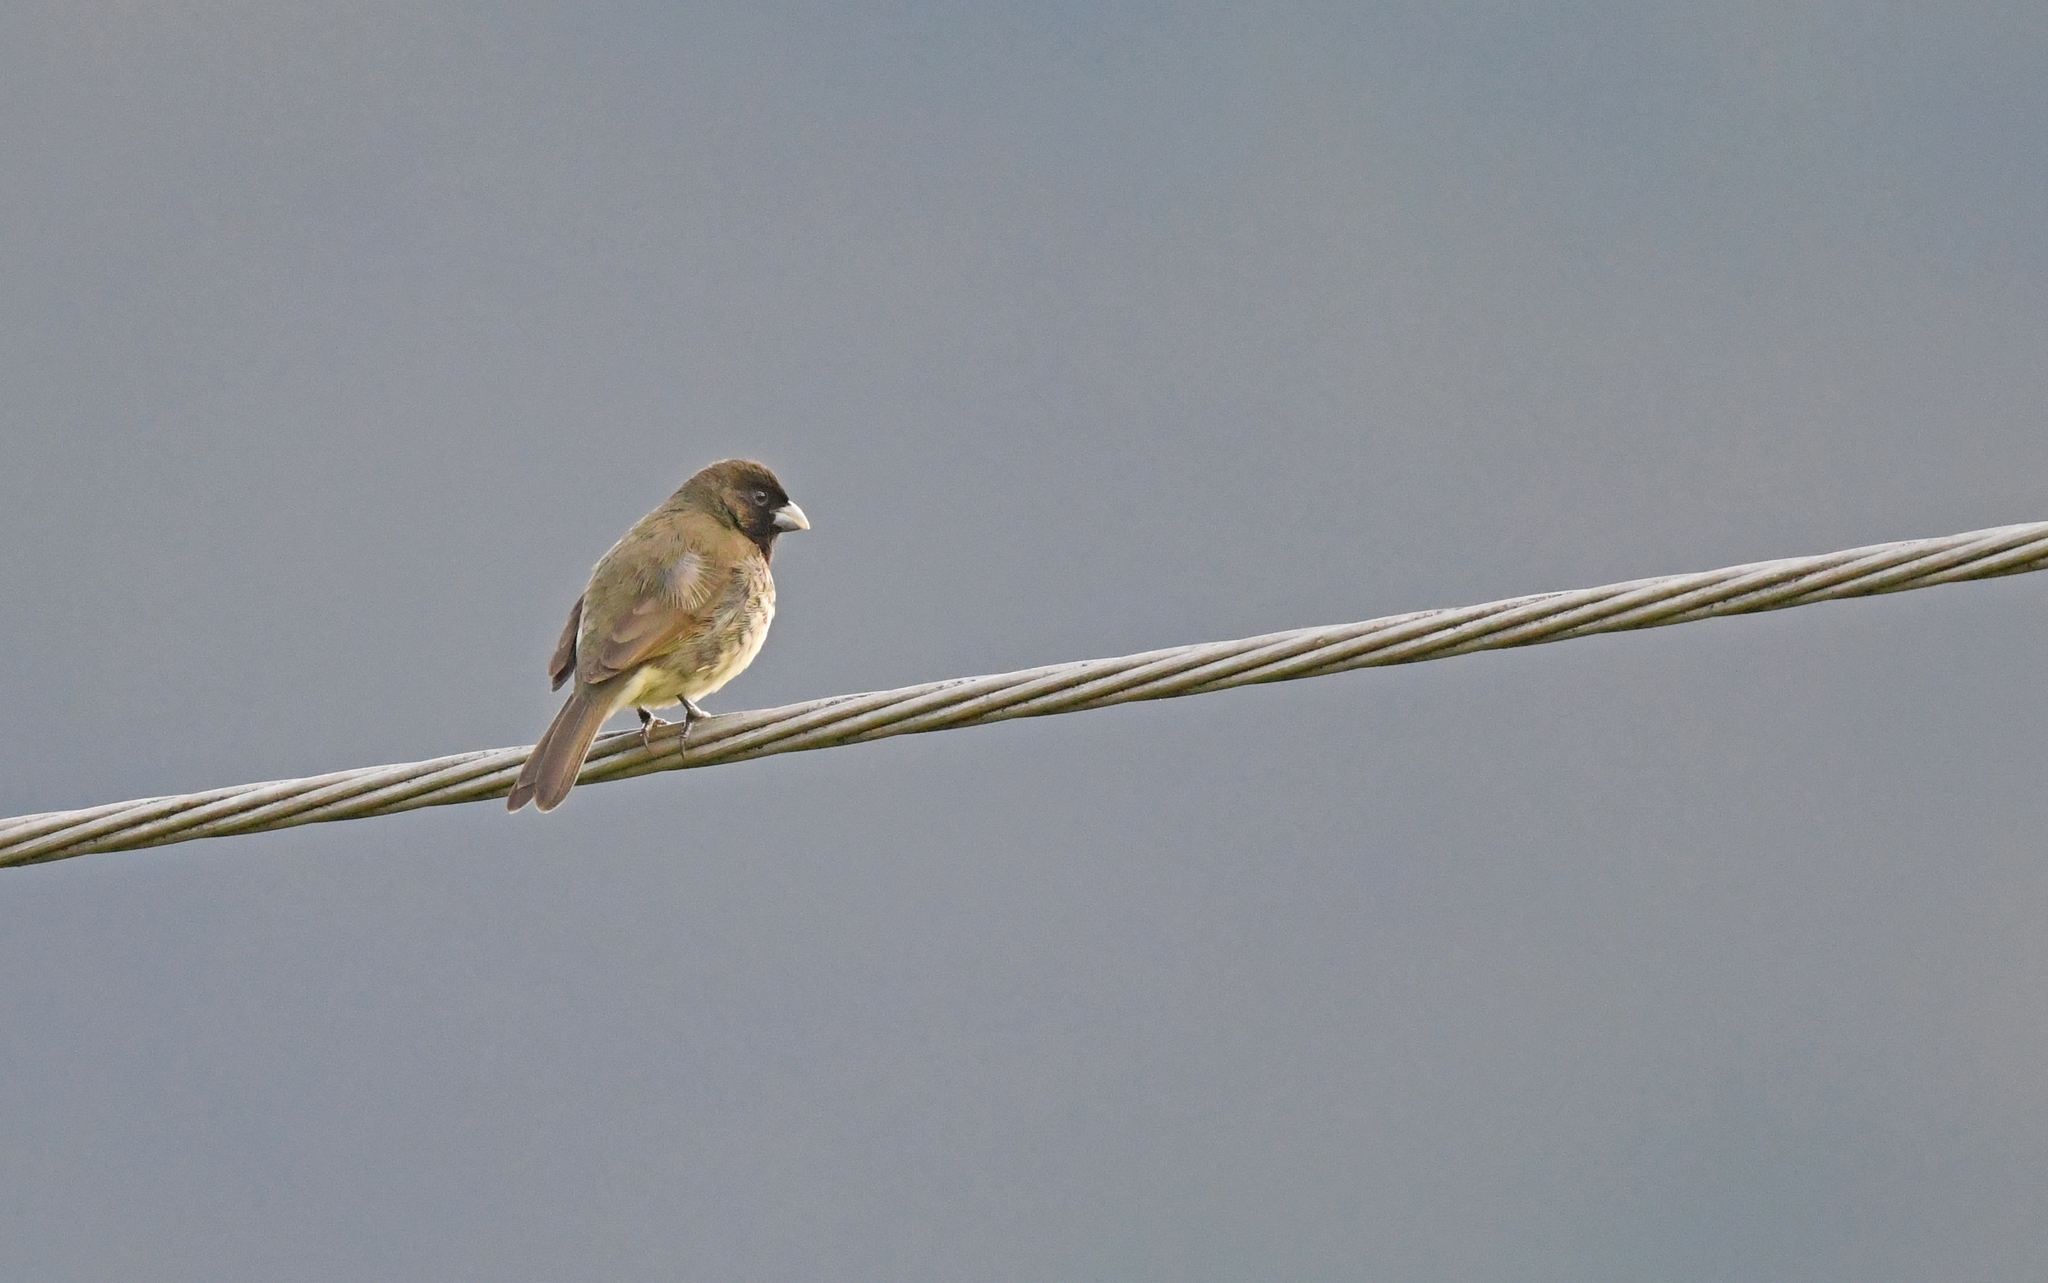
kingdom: Animalia
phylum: Chordata
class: Aves
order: Passeriformes
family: Thraupidae
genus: Sporophila
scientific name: Sporophila nigricollis
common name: Yellow-bellied seedeater
